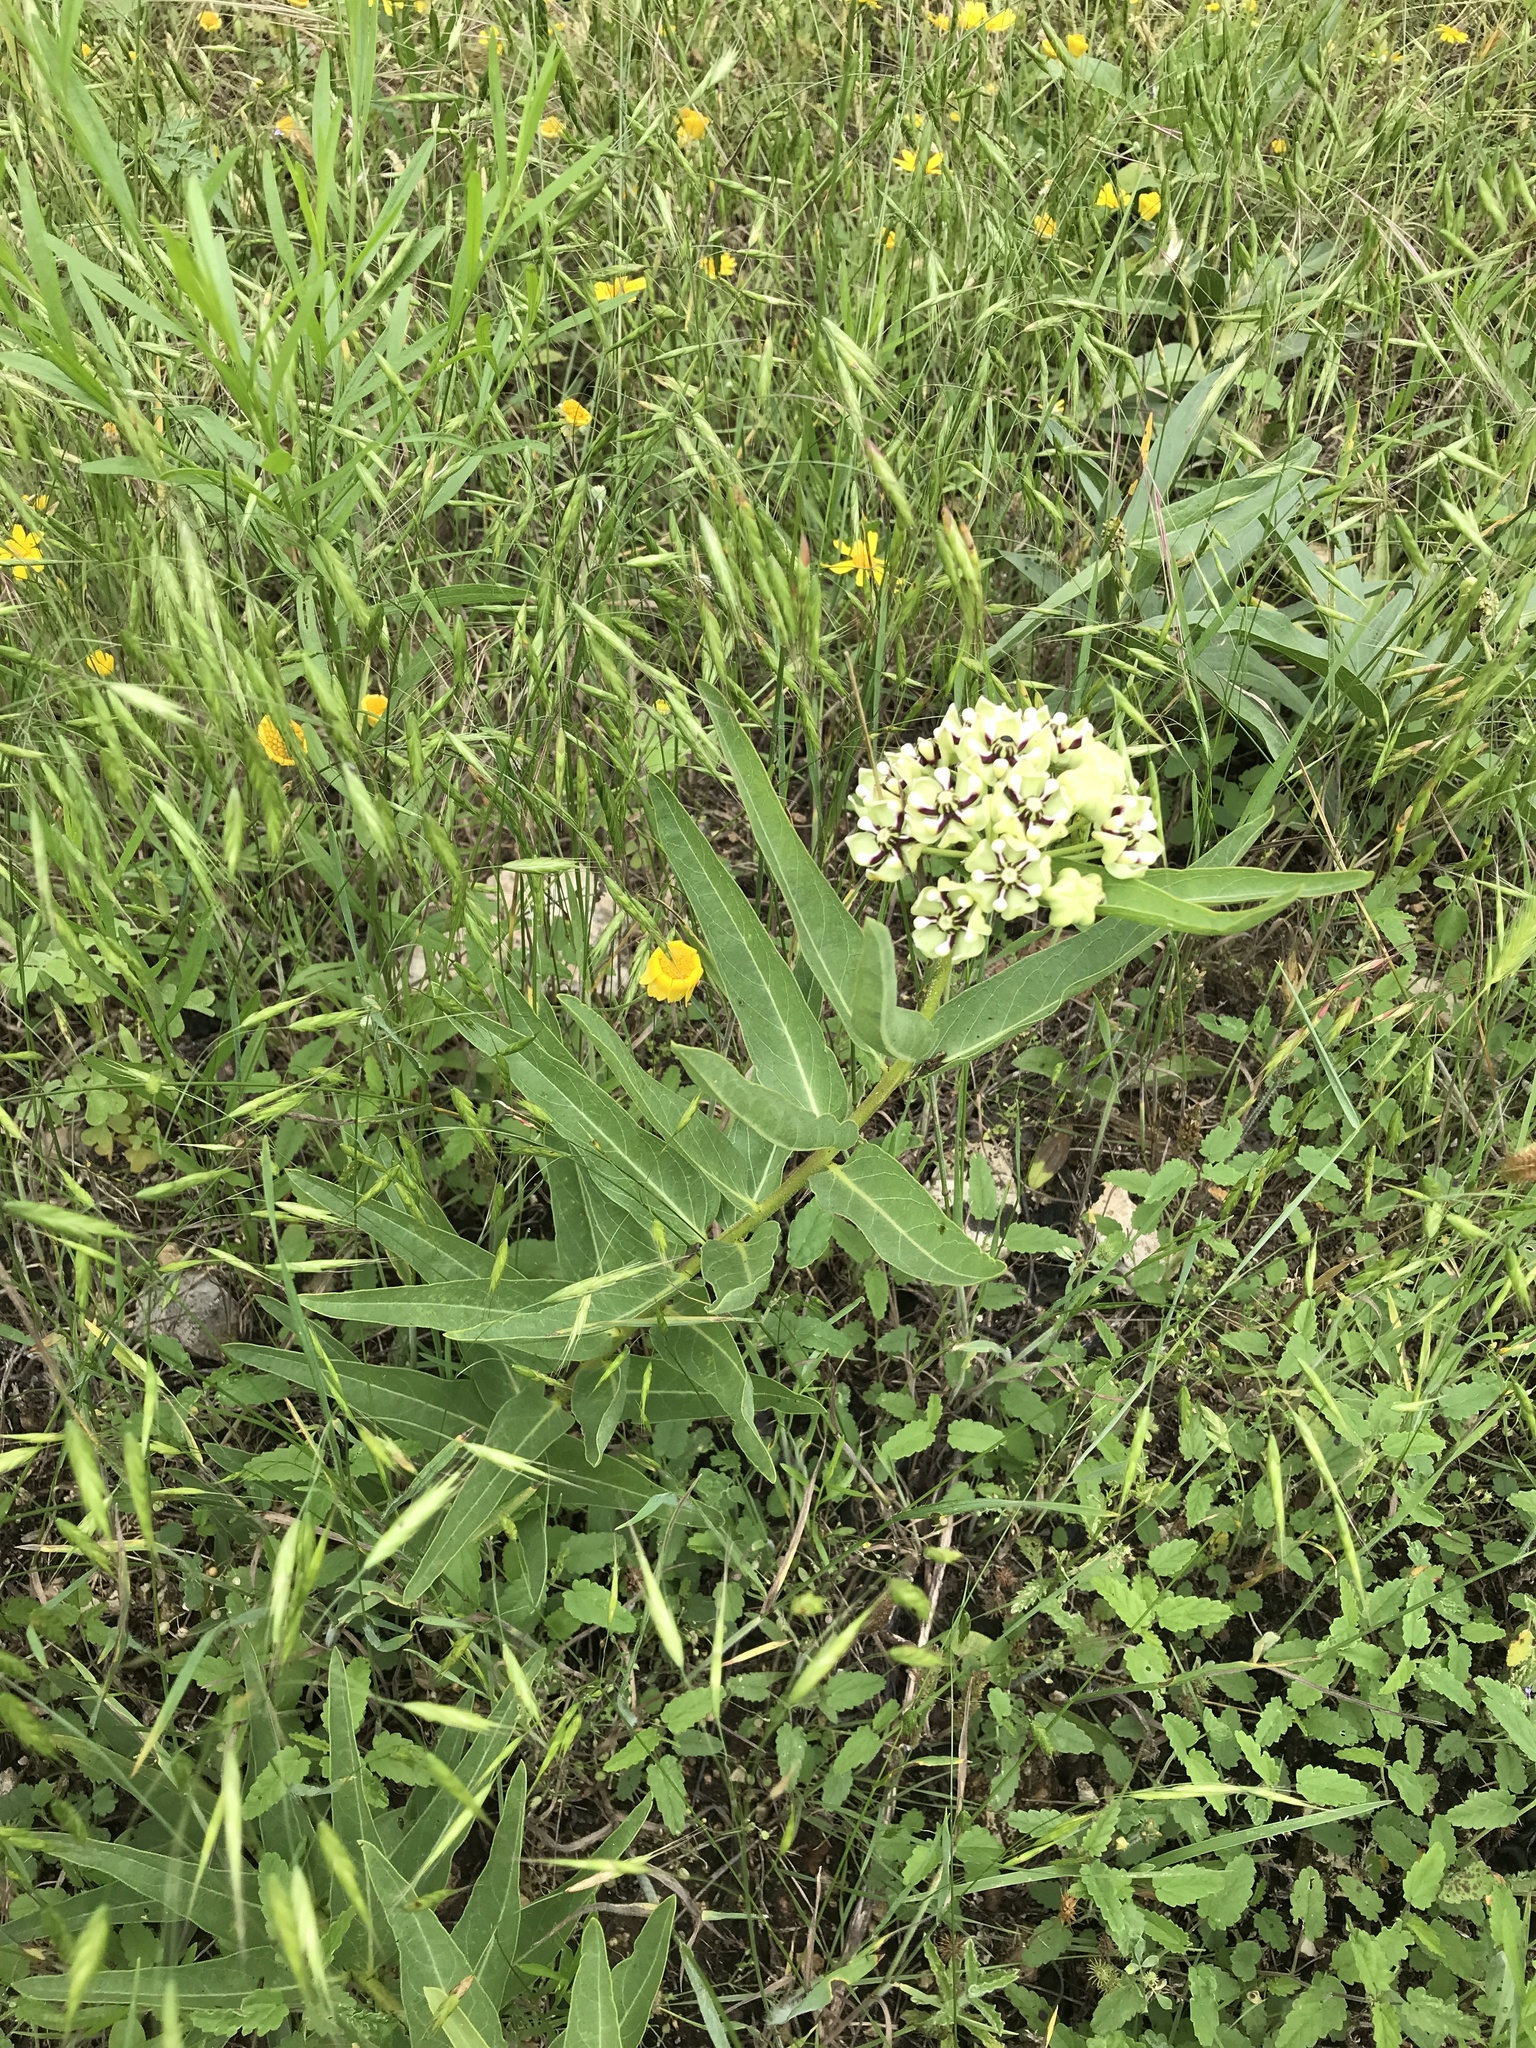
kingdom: Plantae
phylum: Tracheophyta
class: Magnoliopsida
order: Gentianales
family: Apocynaceae
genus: Asclepias
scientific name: Asclepias asperula
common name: Antelope horns
